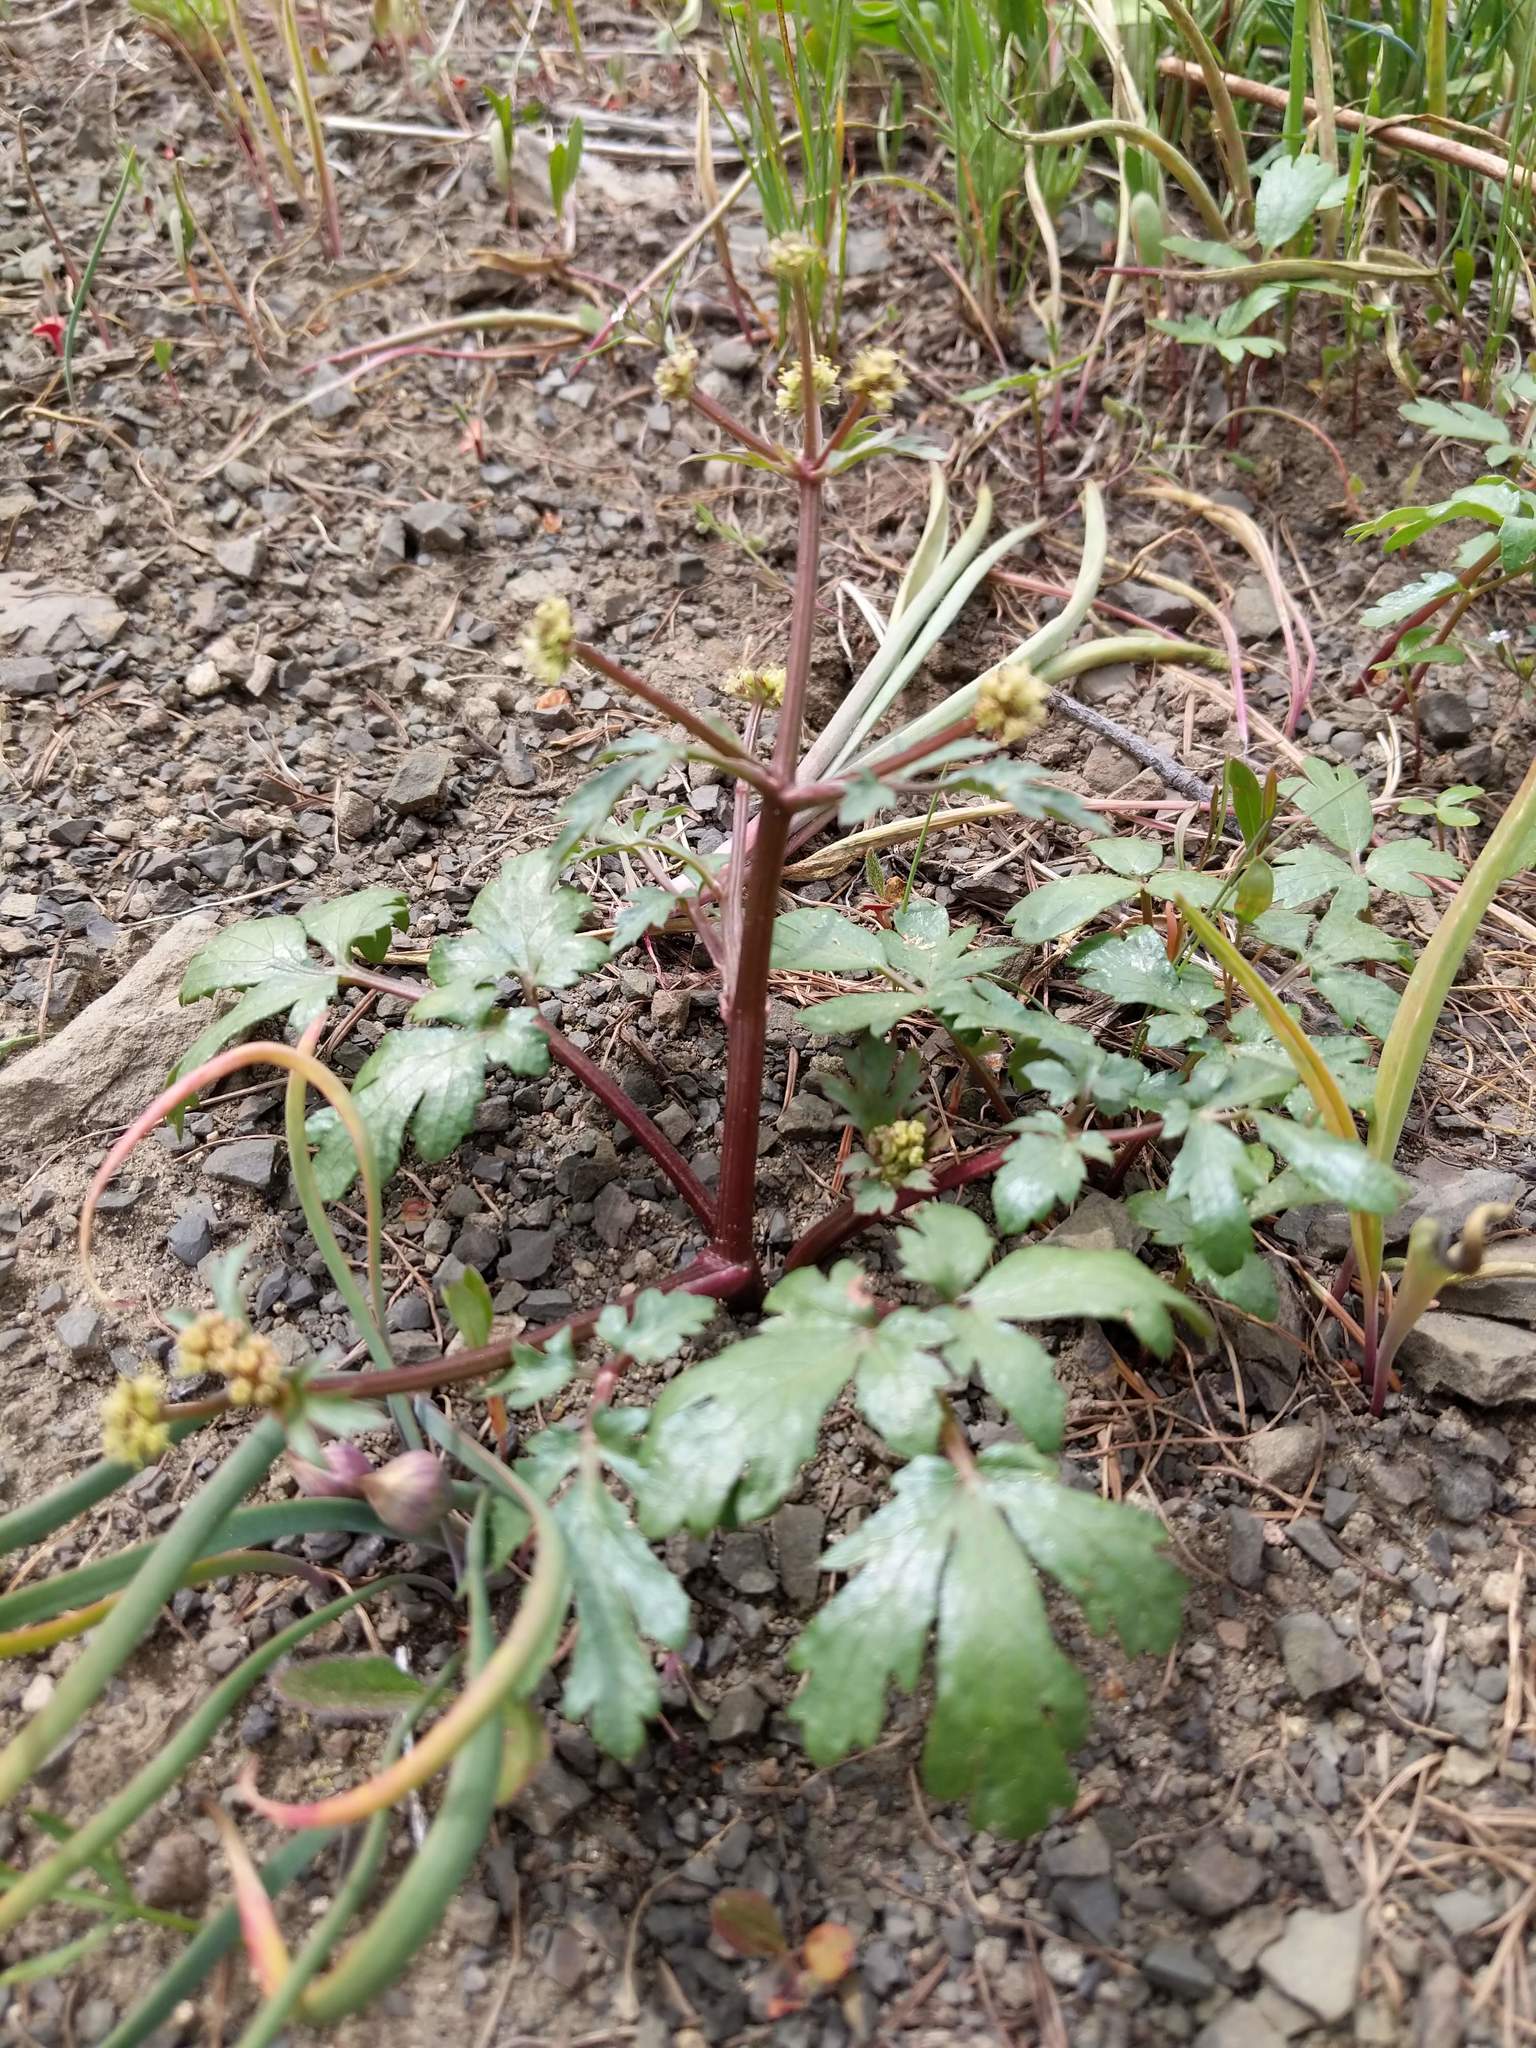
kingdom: Plantae
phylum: Tracheophyta
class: Magnoliopsida
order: Apiales
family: Apiaceae
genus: Sanicula
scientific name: Sanicula graveolens
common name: Sierra sanicle
